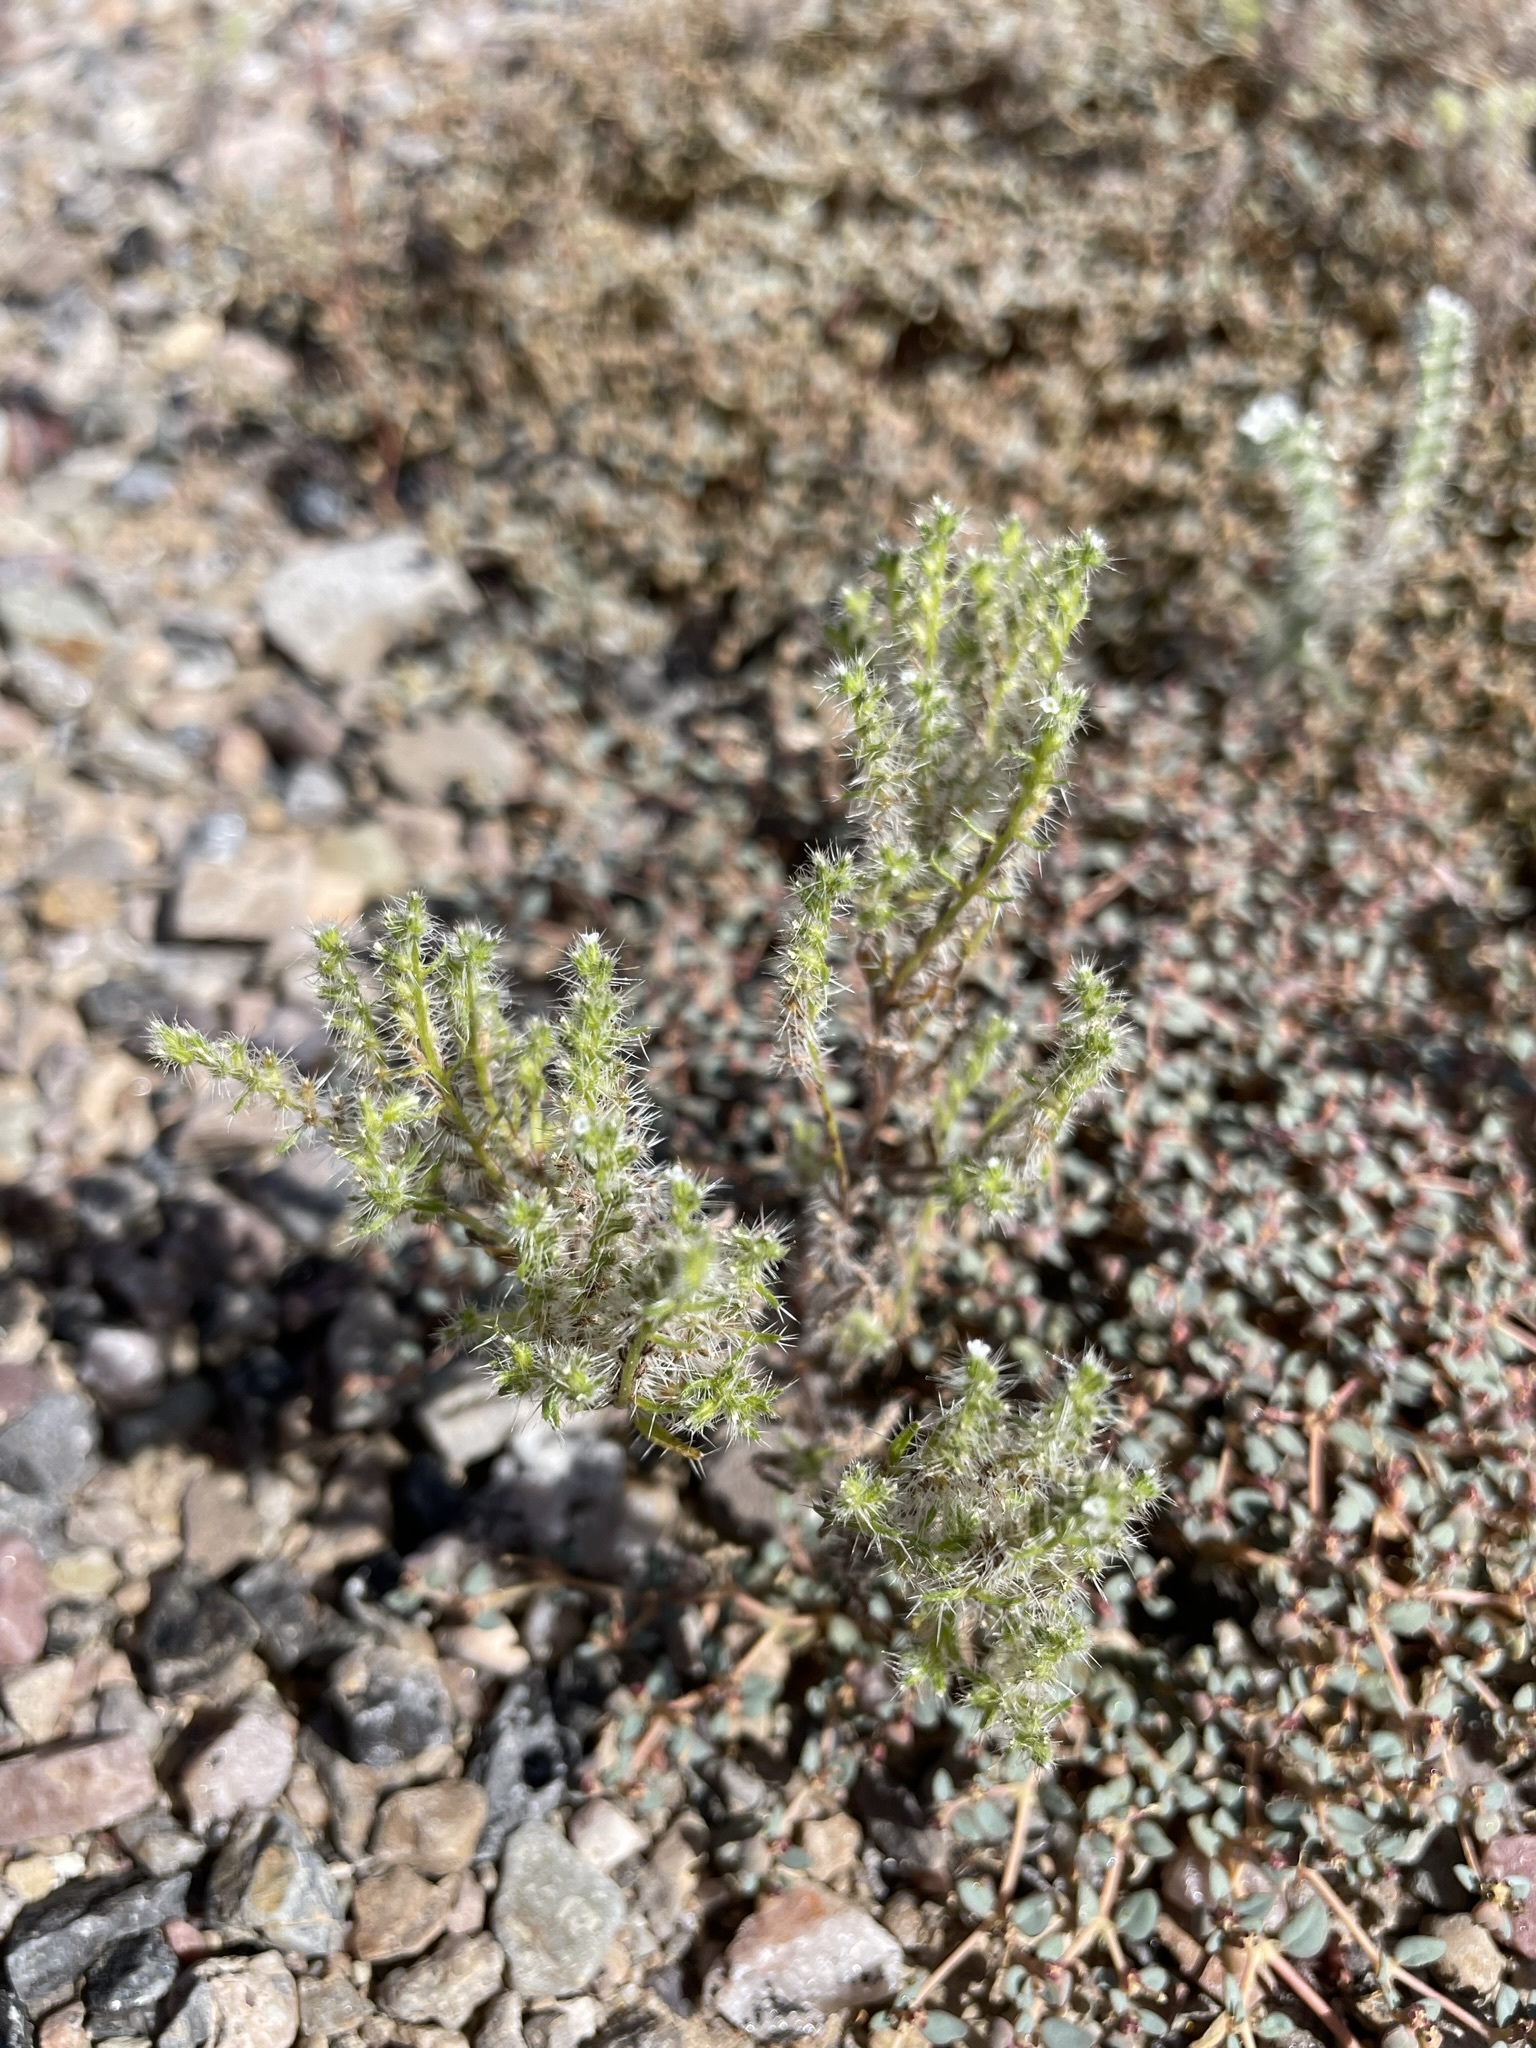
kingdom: Plantae
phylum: Tracheophyta
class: Magnoliopsida
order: Boraginales
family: Boraginaceae
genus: Cryptantha
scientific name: Cryptantha maritima
